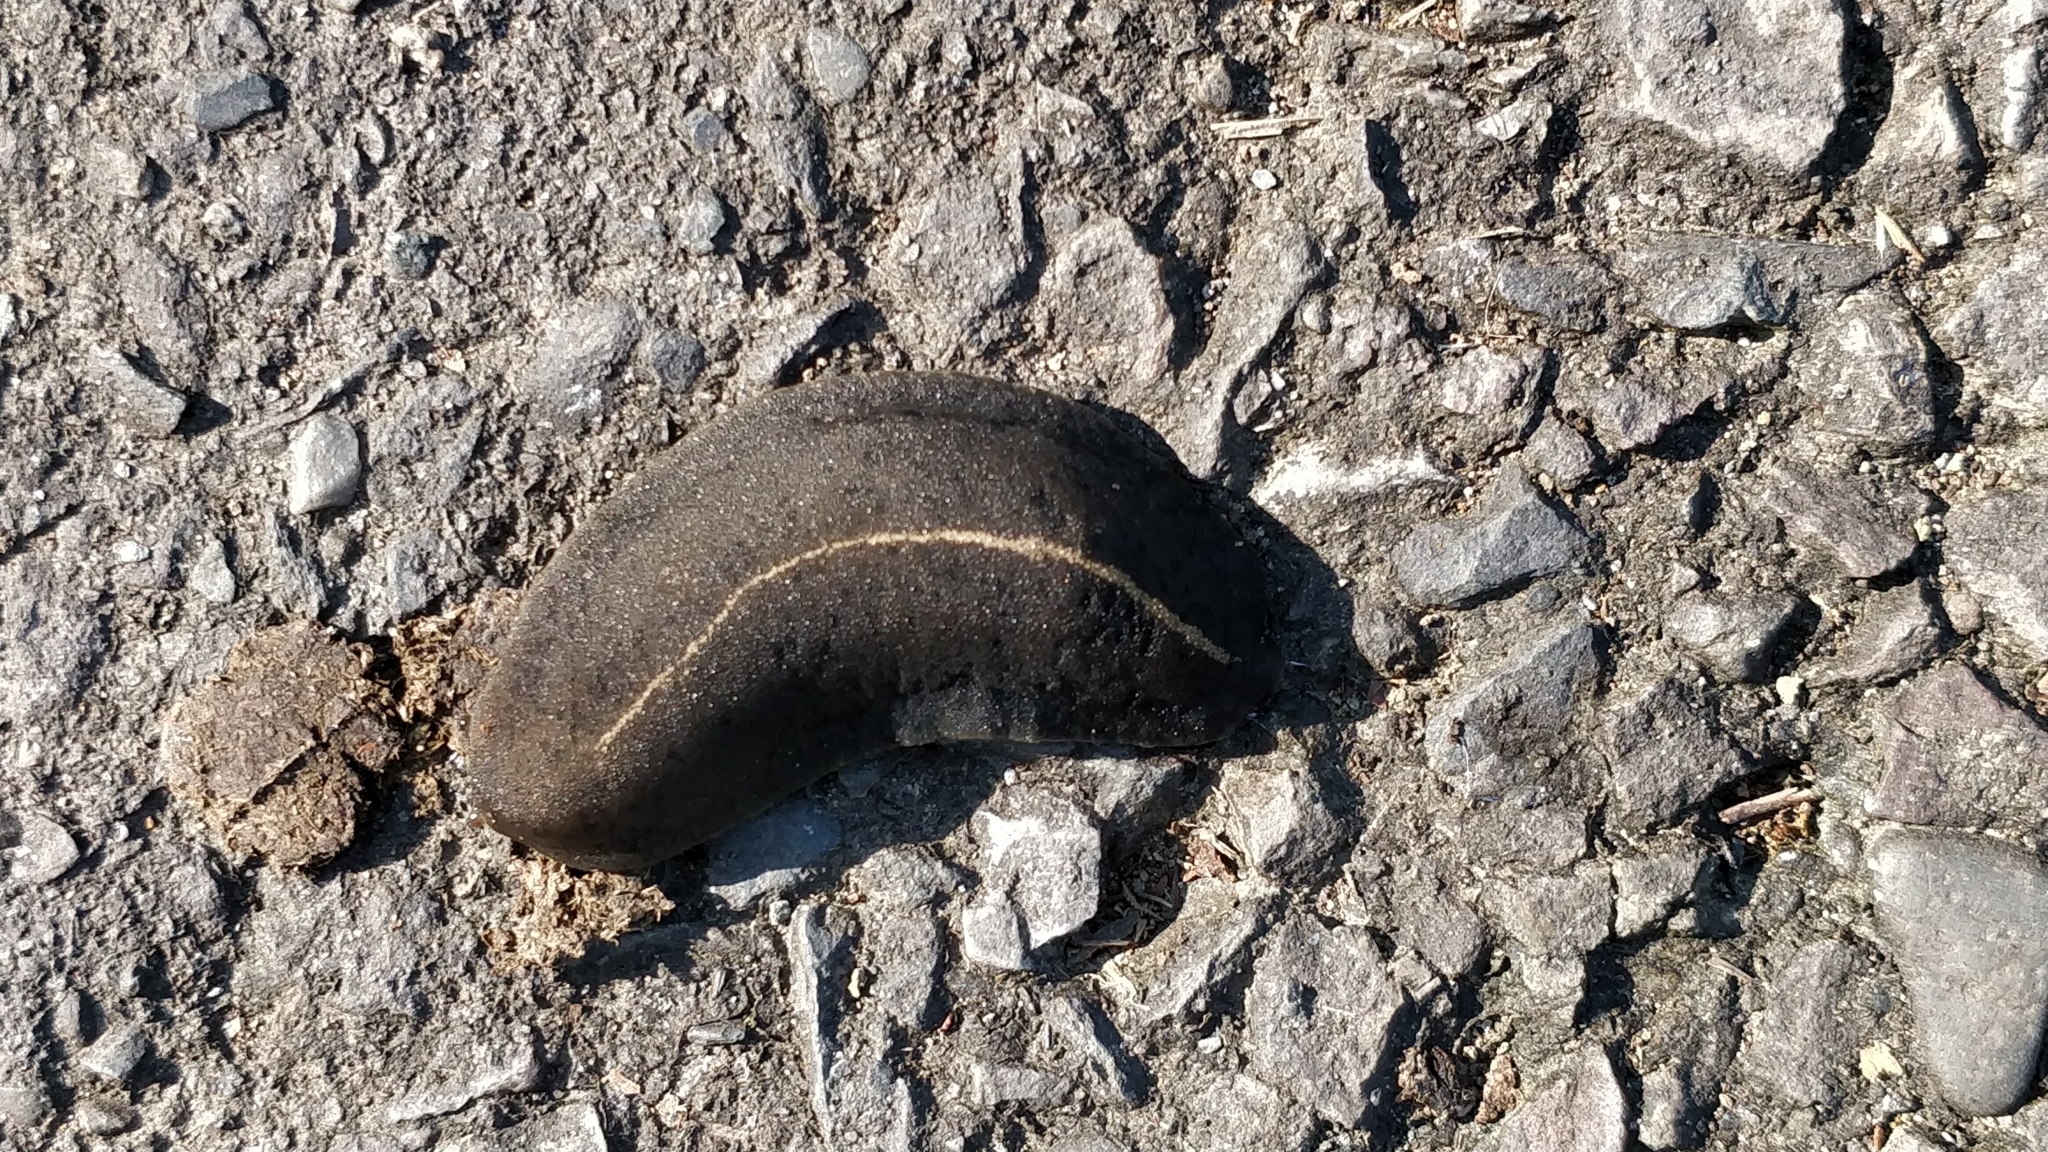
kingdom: Animalia
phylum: Mollusca
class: Gastropoda
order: Systellommatophora
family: Veronicellidae
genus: Laevicaulis
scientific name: Laevicaulis alte
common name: Tropical leatherleaf
